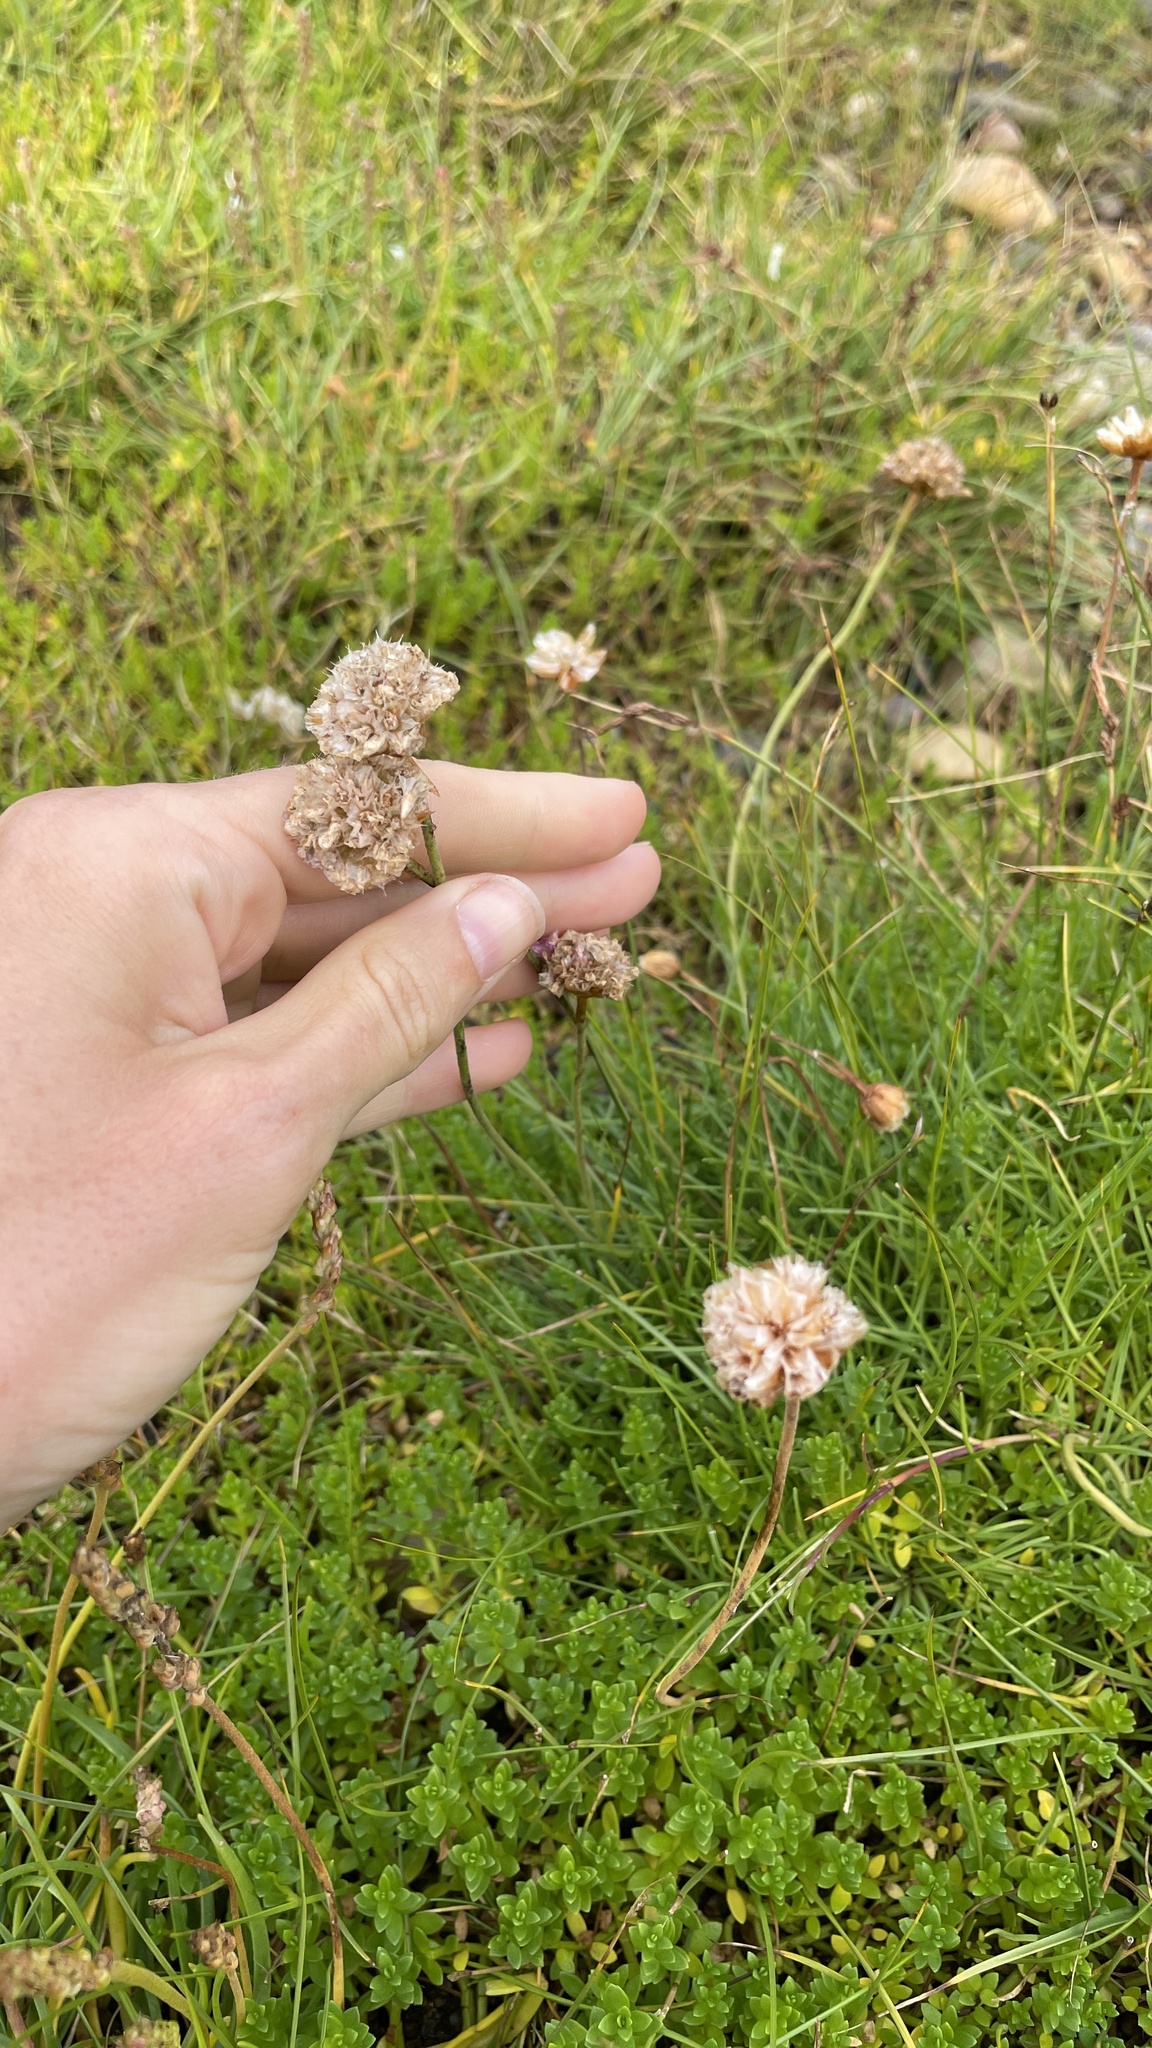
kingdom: Plantae
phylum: Tracheophyta
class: Magnoliopsida
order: Caryophyllales
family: Plumbaginaceae
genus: Armeria
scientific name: Armeria maritima
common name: Thrift
